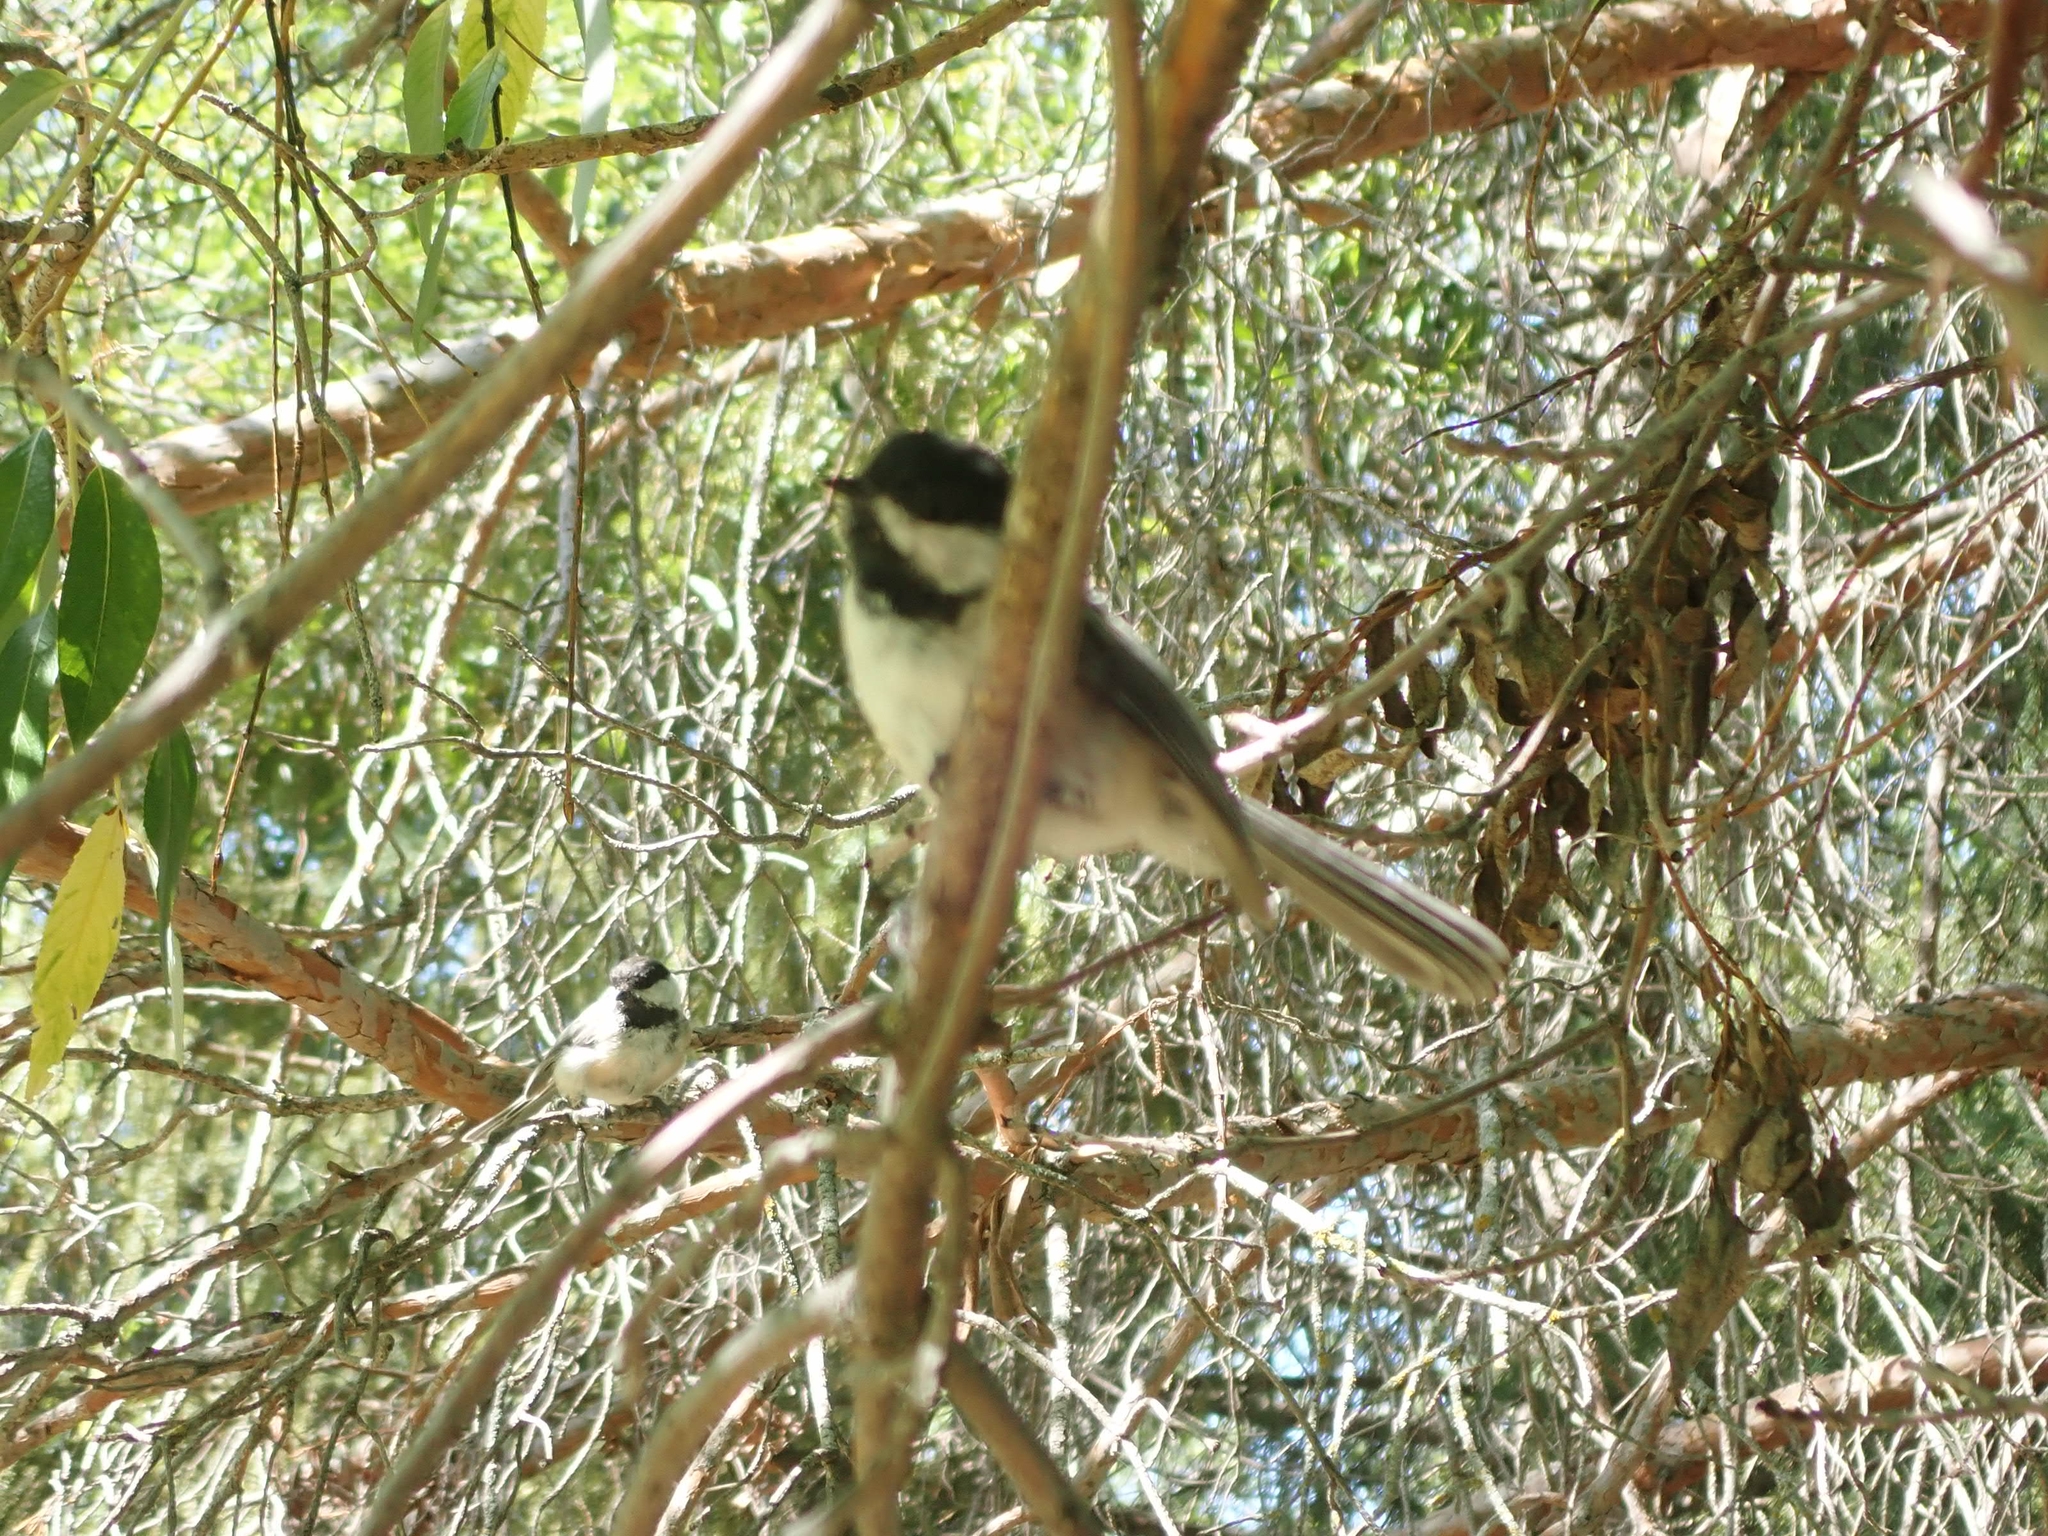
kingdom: Animalia
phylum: Chordata
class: Aves
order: Passeriformes
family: Paridae
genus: Poecile
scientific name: Poecile atricapillus
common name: Black-capped chickadee
